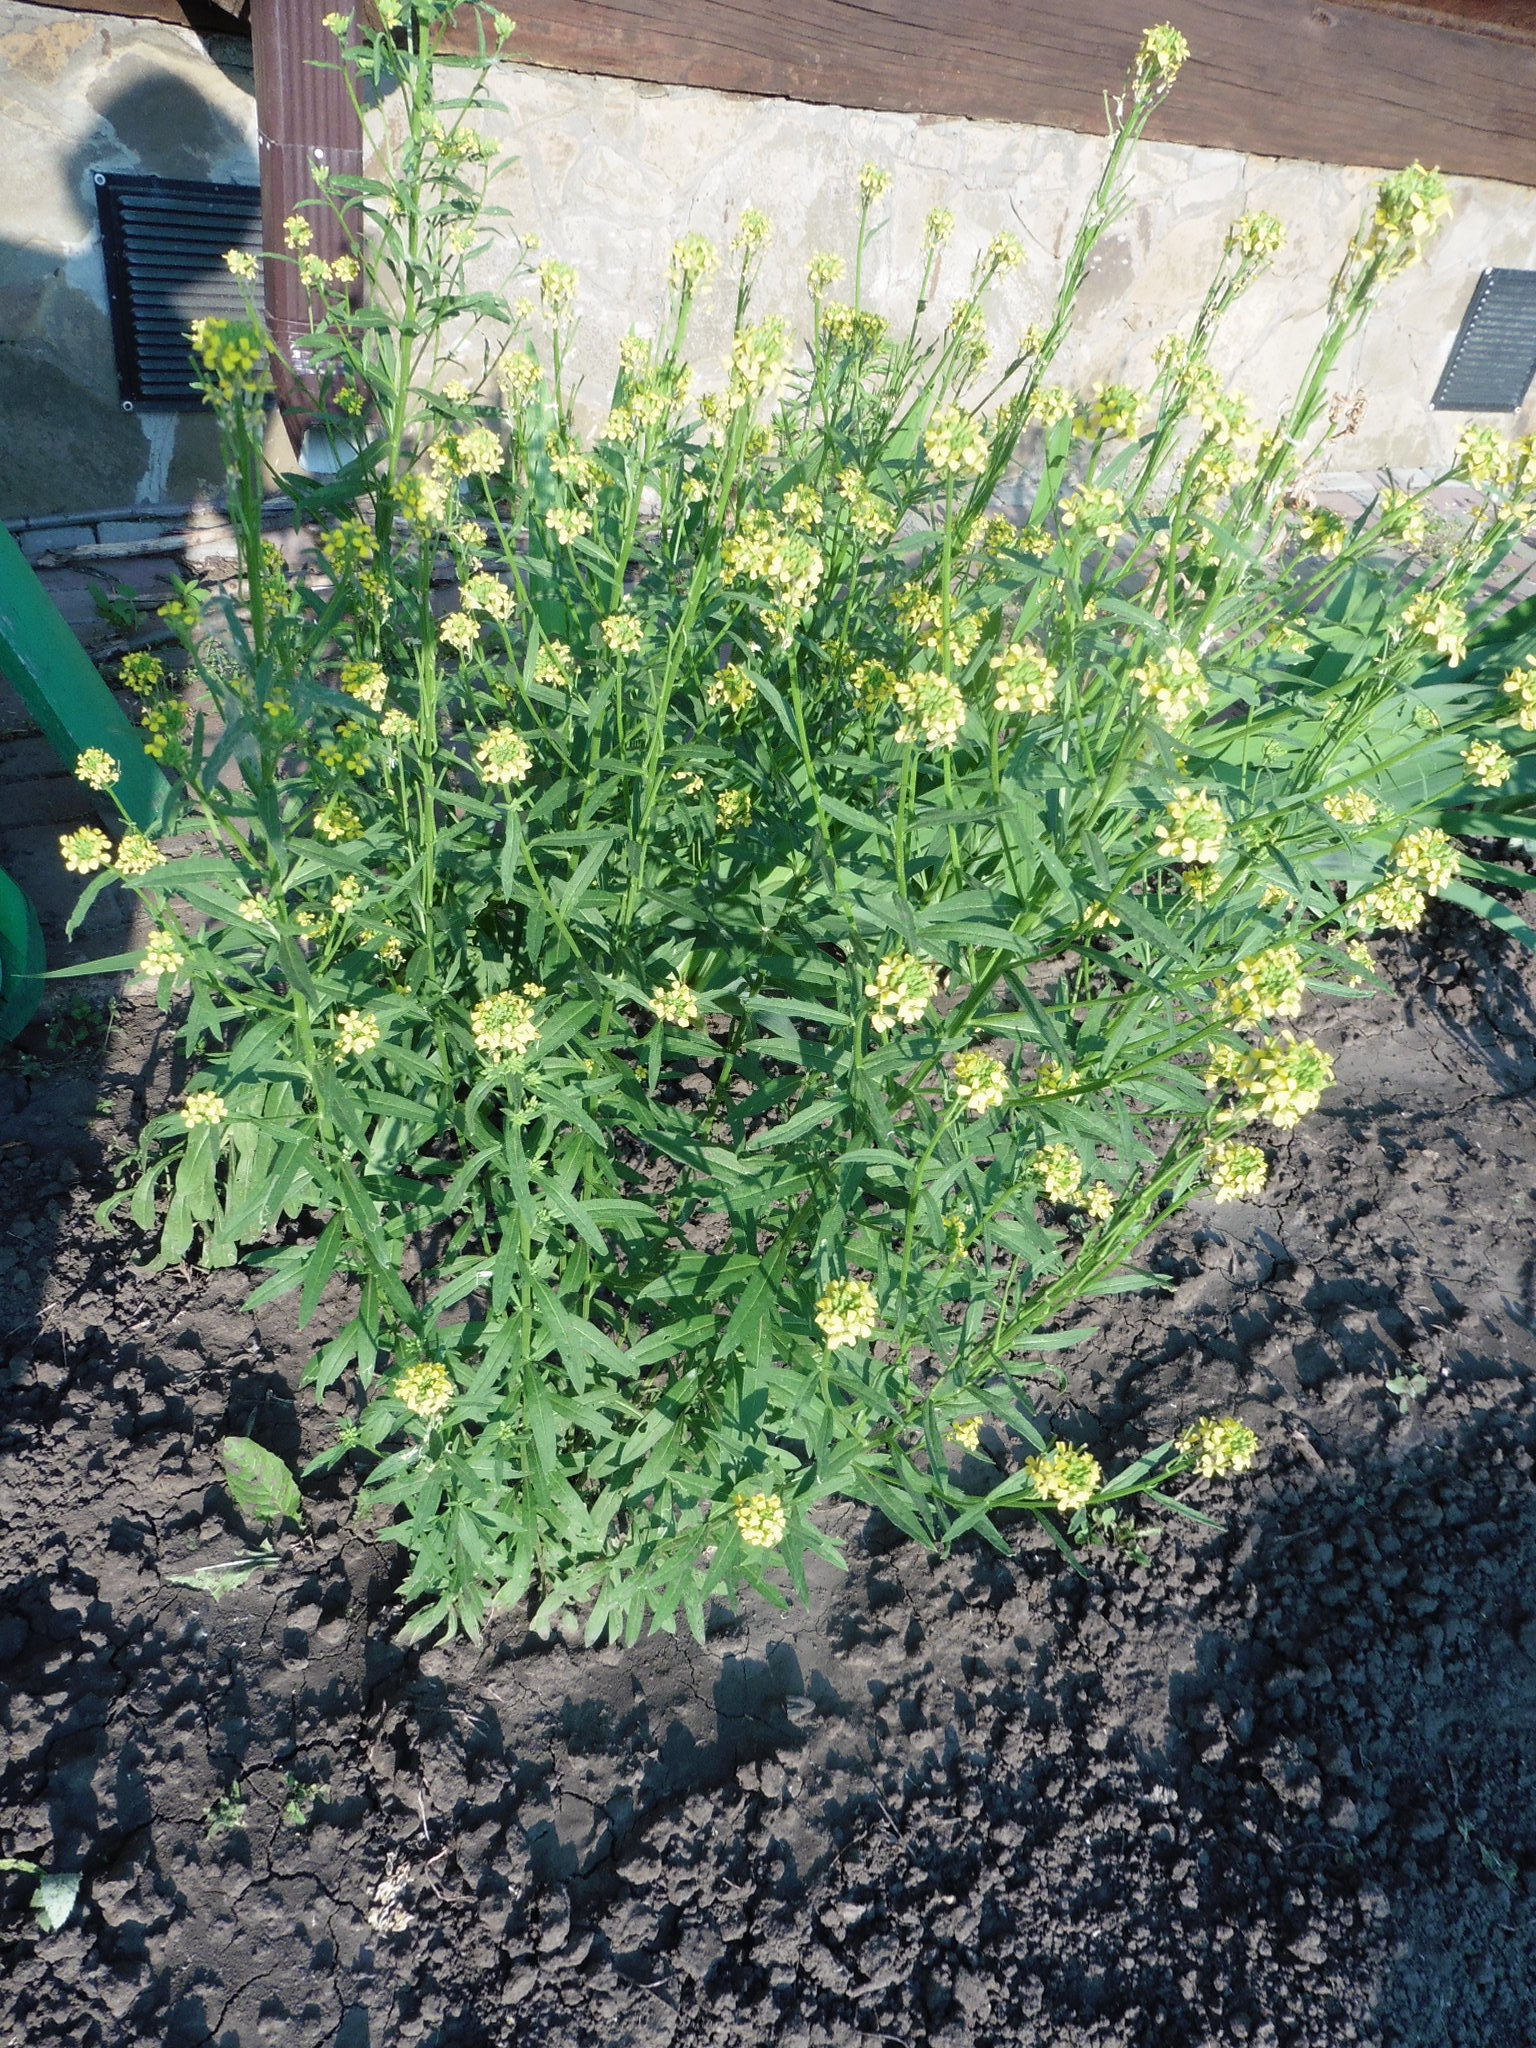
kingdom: Plantae
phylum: Tracheophyta
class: Magnoliopsida
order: Brassicales
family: Brassicaceae
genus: Erysimum
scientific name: Erysimum hieraciifolium
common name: European wallflower
